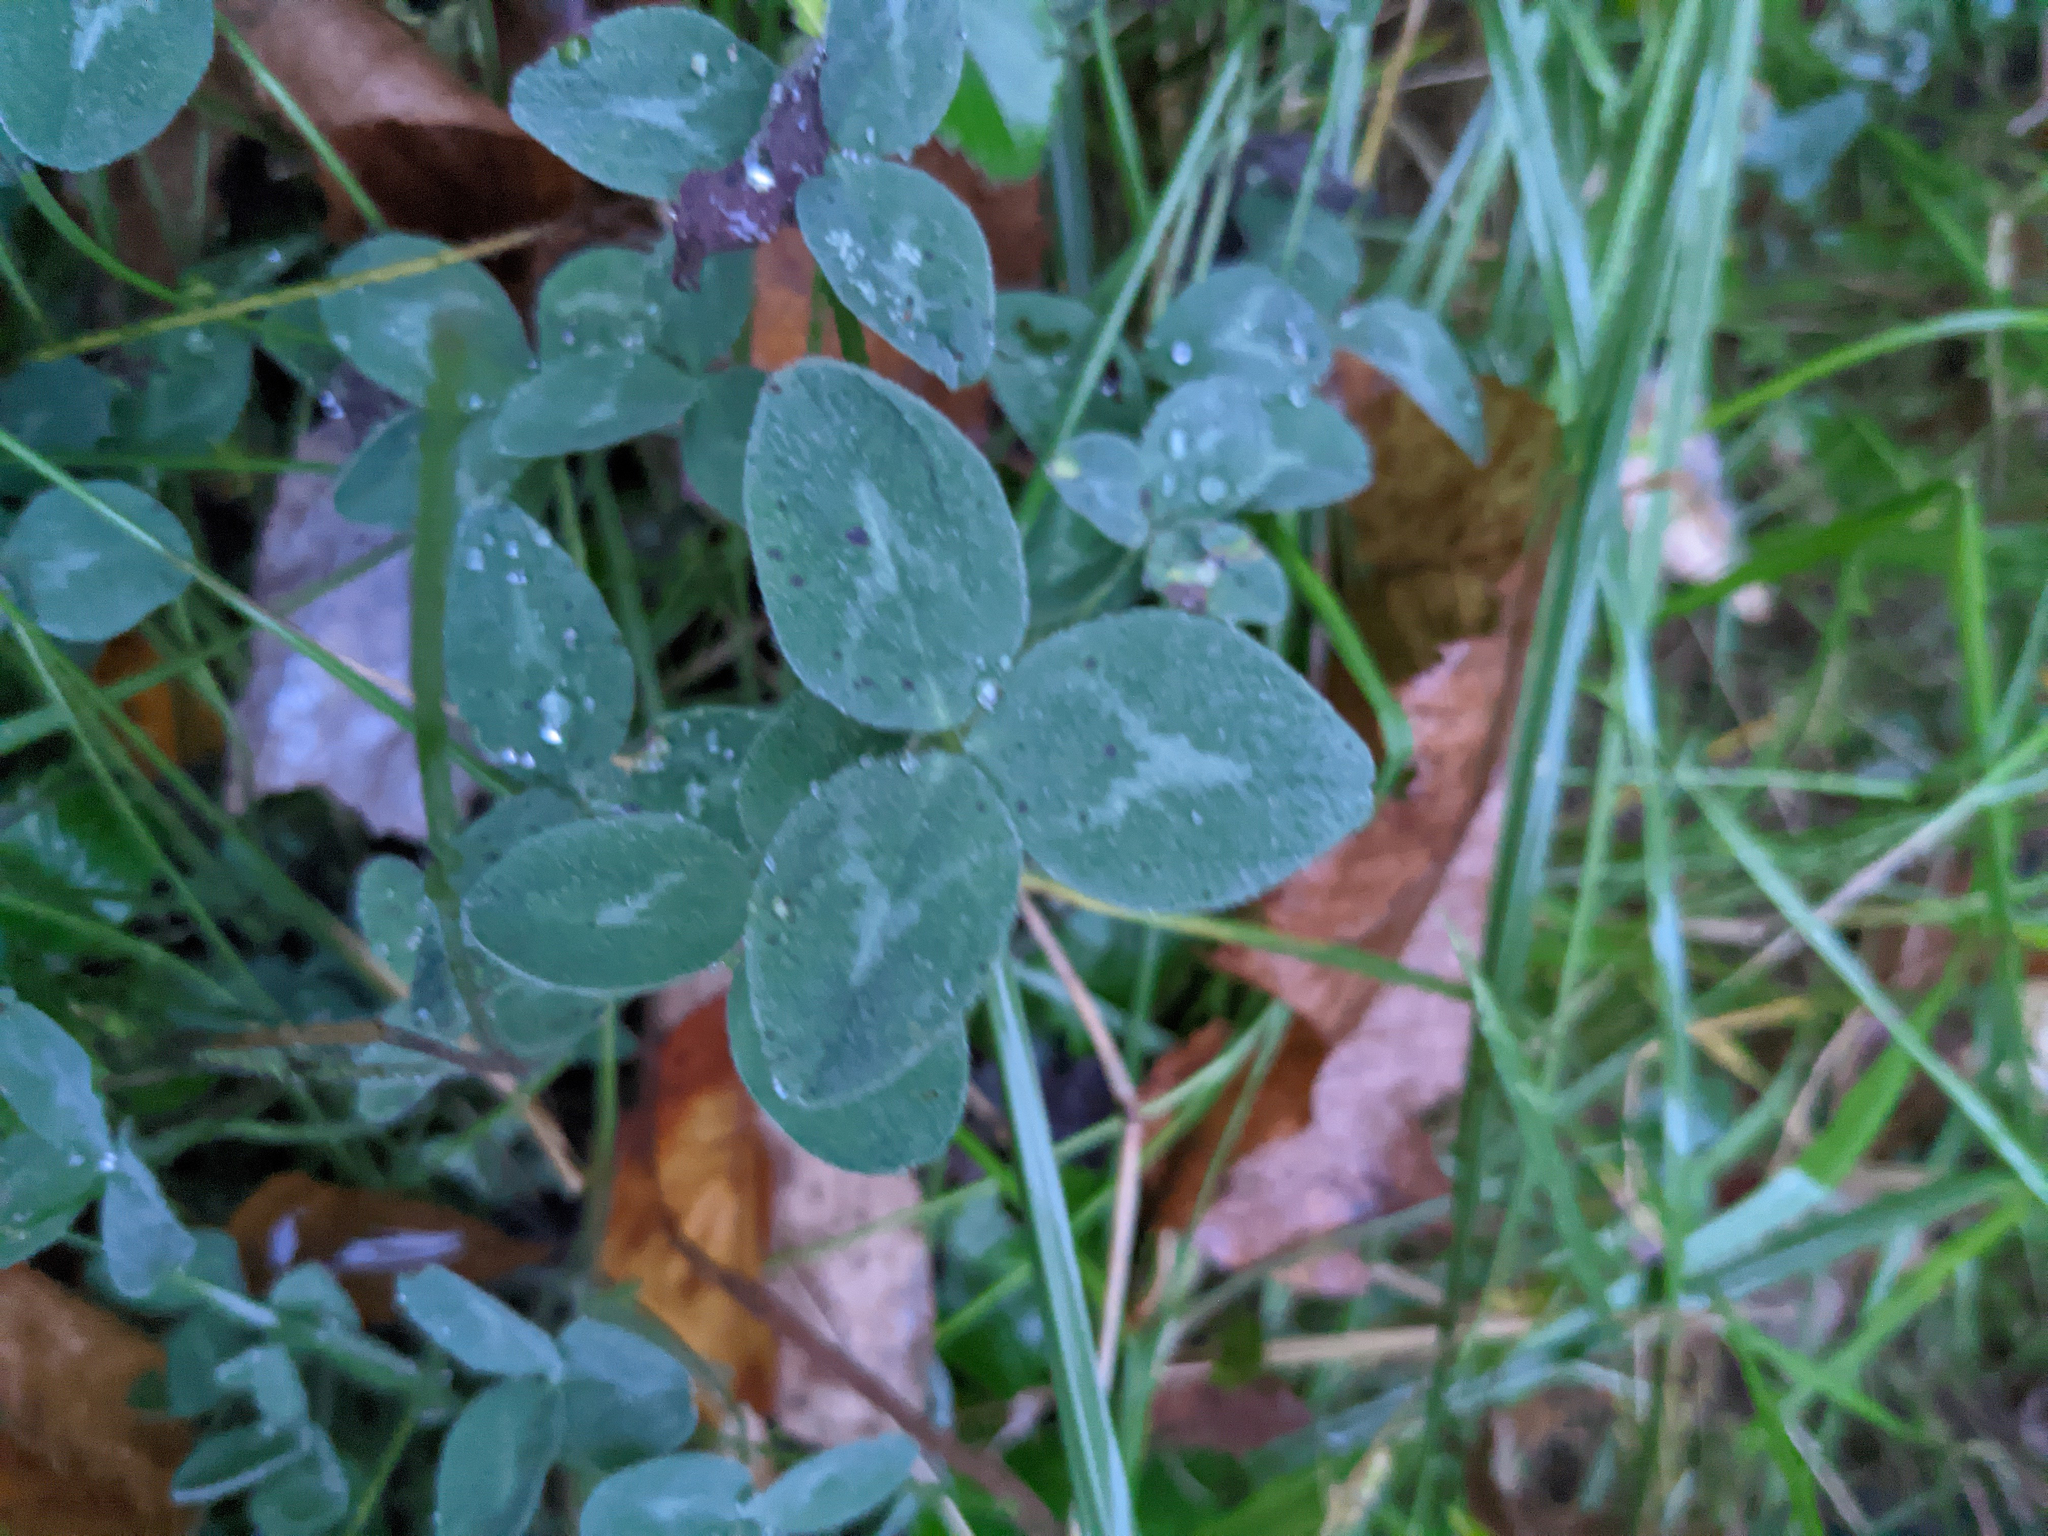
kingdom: Plantae
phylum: Tracheophyta
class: Magnoliopsida
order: Fabales
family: Fabaceae
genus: Trifolium
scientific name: Trifolium pratense
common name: Red clover
